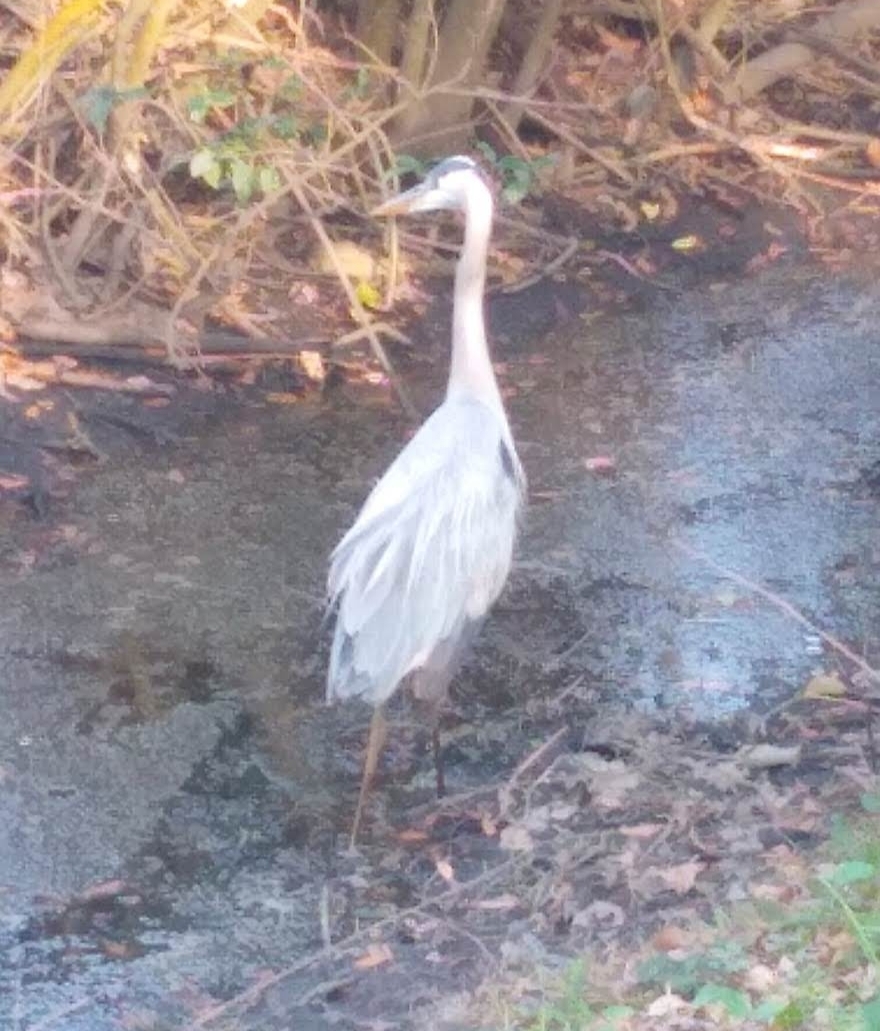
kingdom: Animalia
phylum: Chordata
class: Aves
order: Pelecaniformes
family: Ardeidae
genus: Ardea
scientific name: Ardea herodias
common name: Great blue heron
